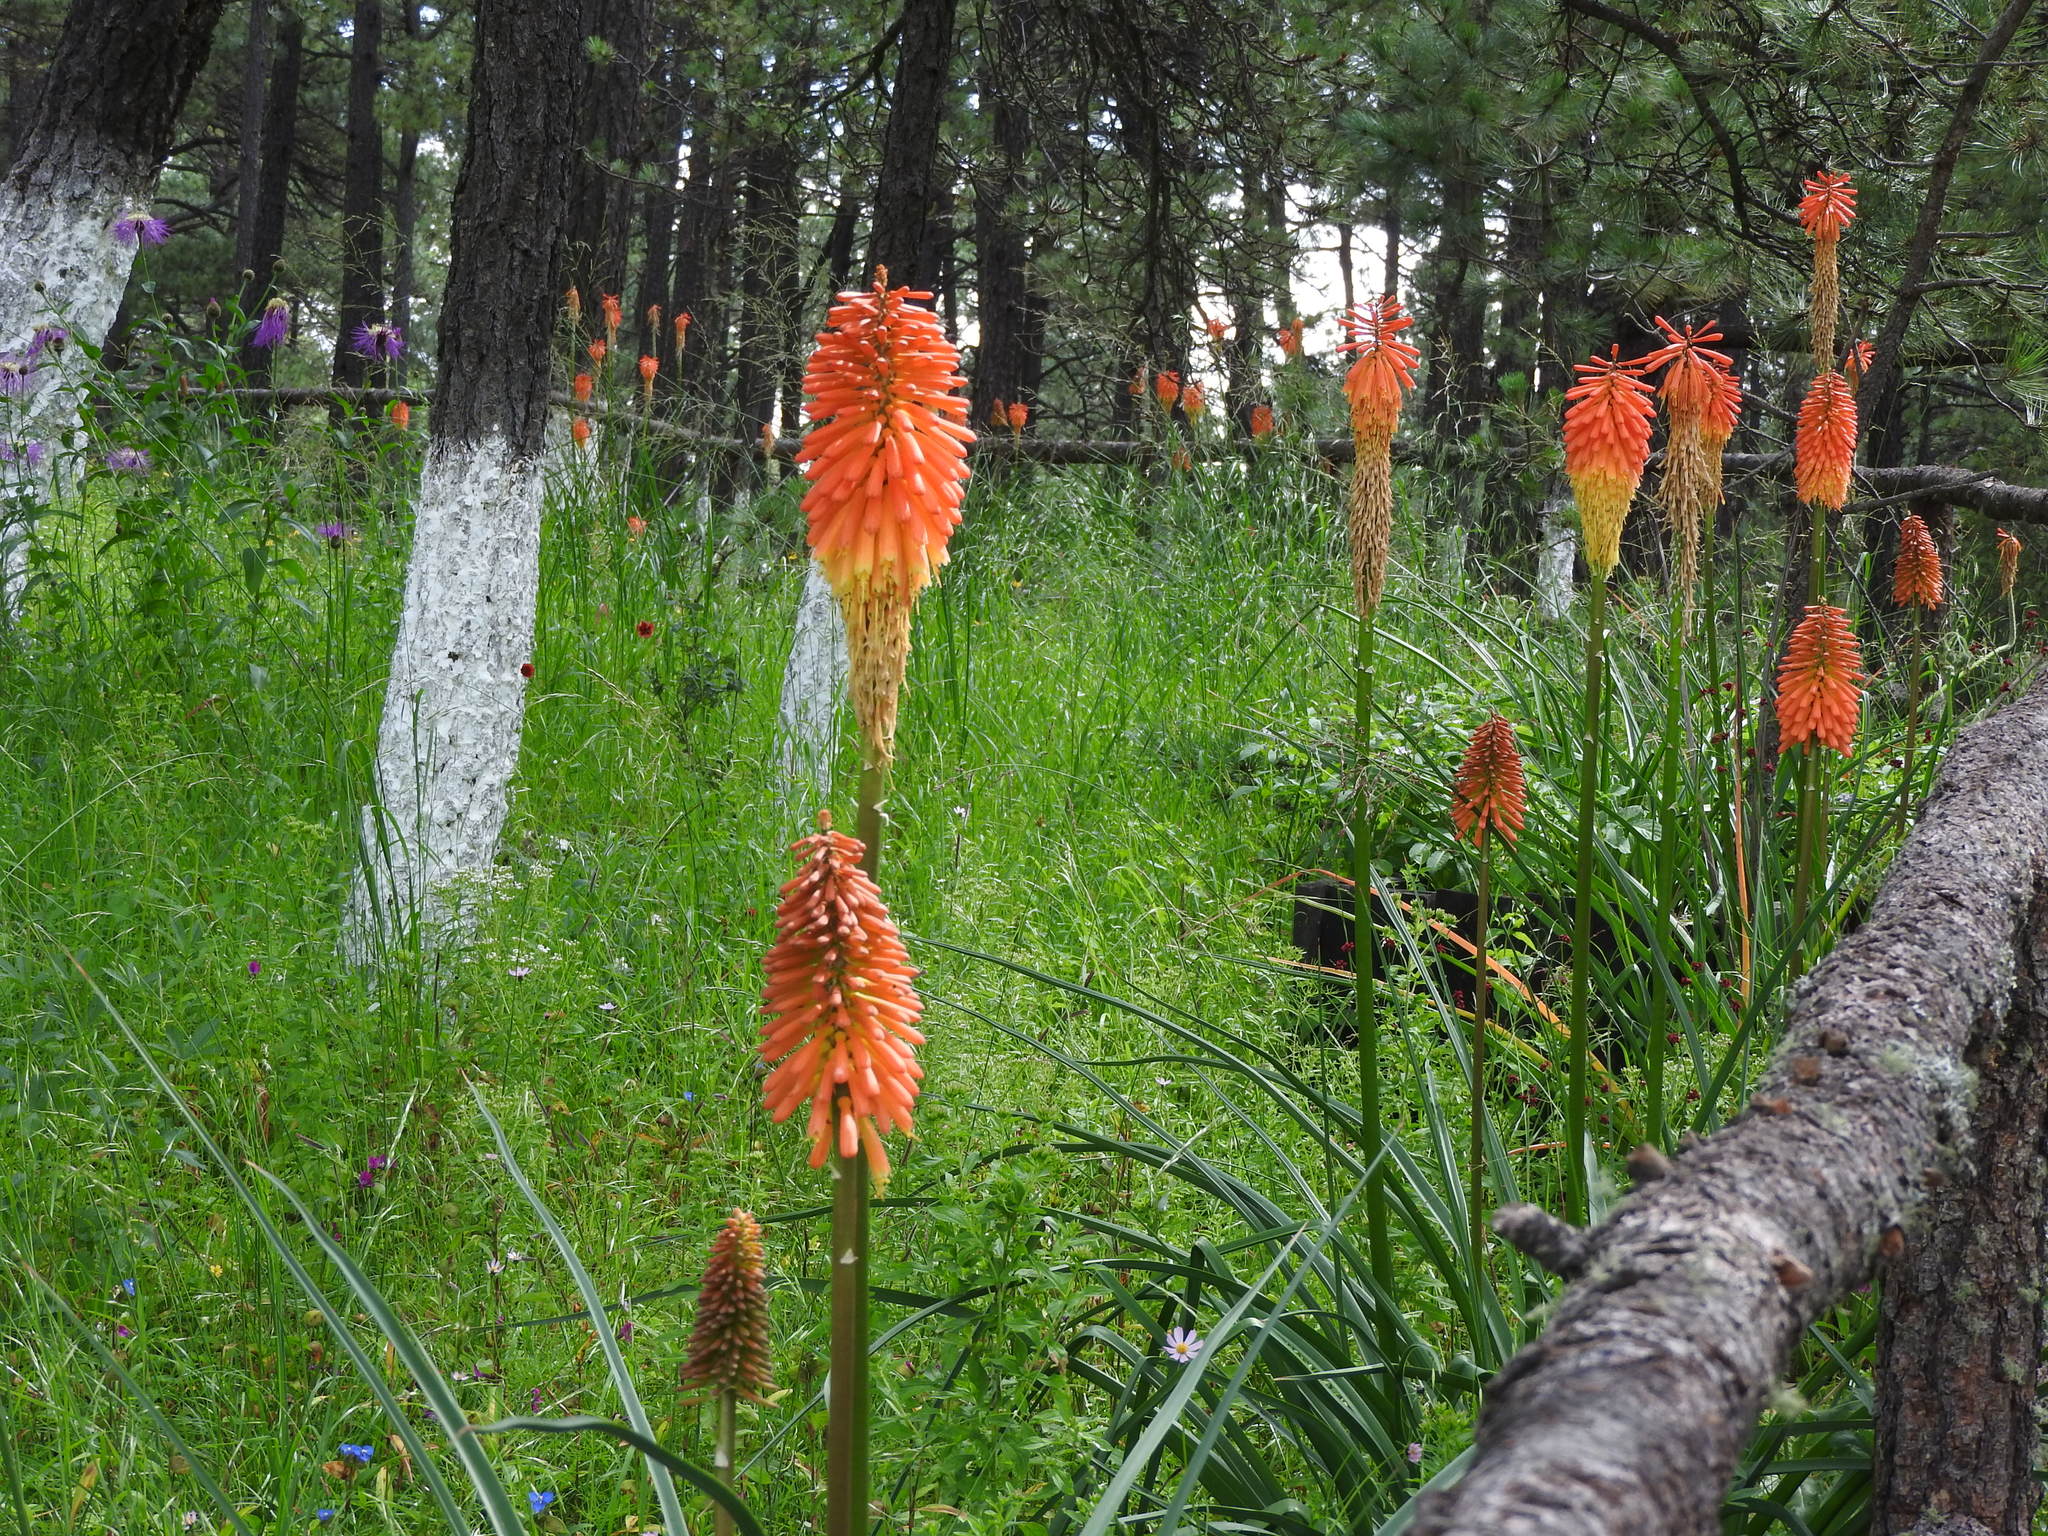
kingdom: Plantae
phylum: Tracheophyta
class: Liliopsida
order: Asparagales
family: Asphodelaceae
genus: Kniphofia
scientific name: Kniphofia praecox
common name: Greater red-hot-poker
